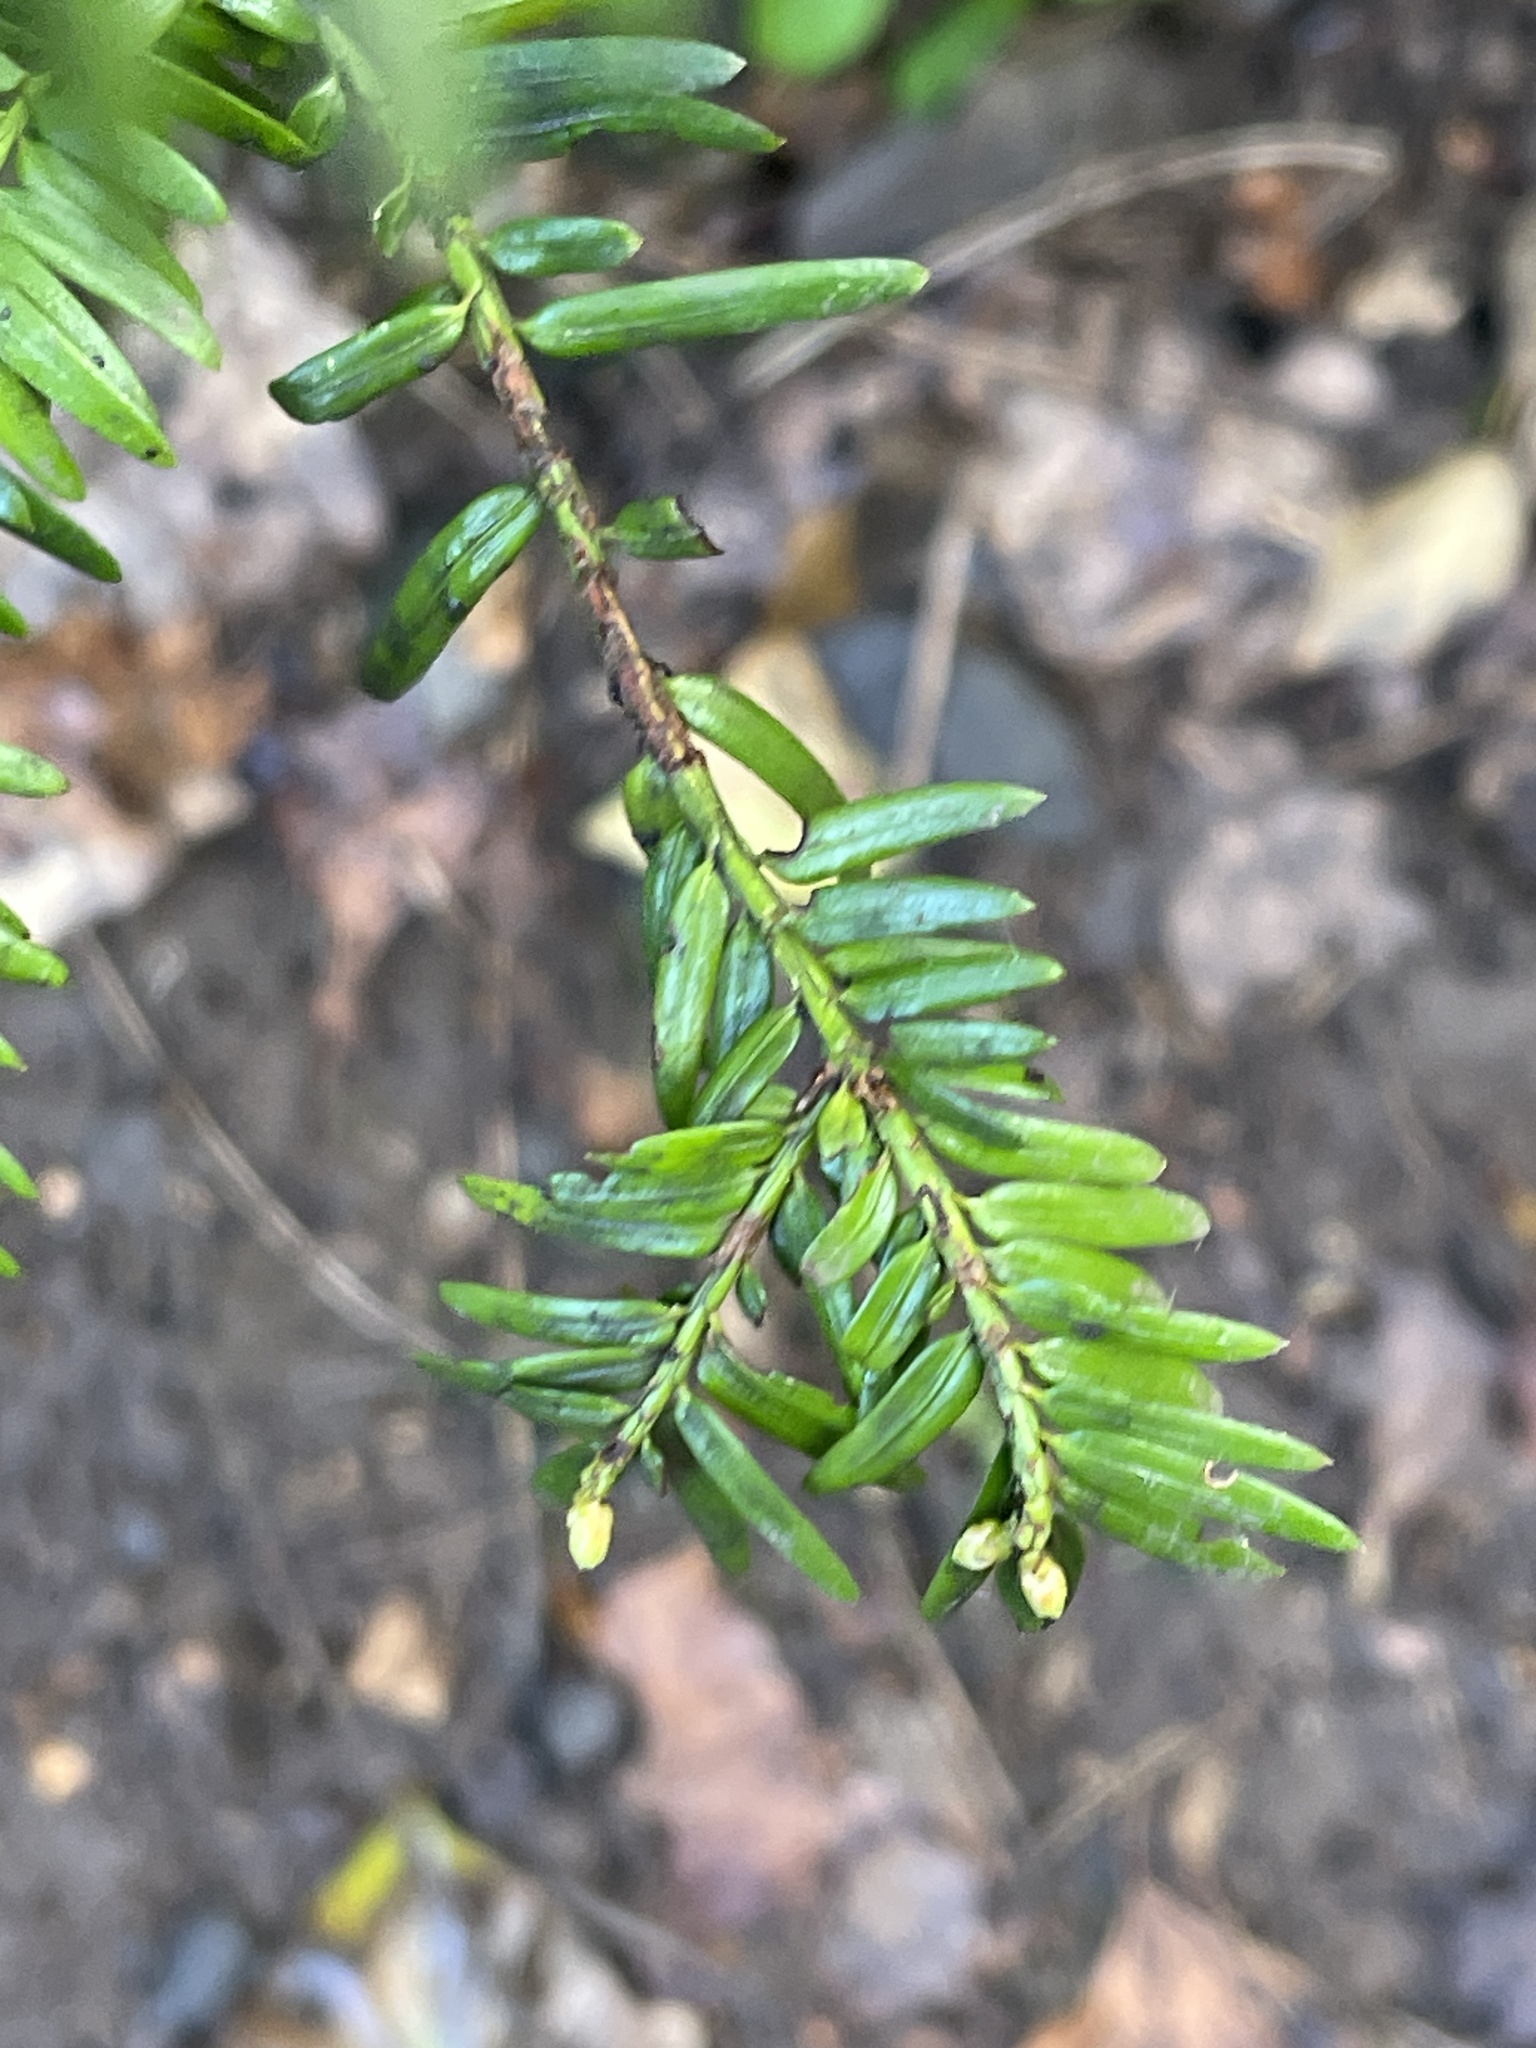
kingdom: Plantae
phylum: Tracheophyta
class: Pinopsida
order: Pinales
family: Taxaceae
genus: Taxus
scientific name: Taxus baccata
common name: Yew
